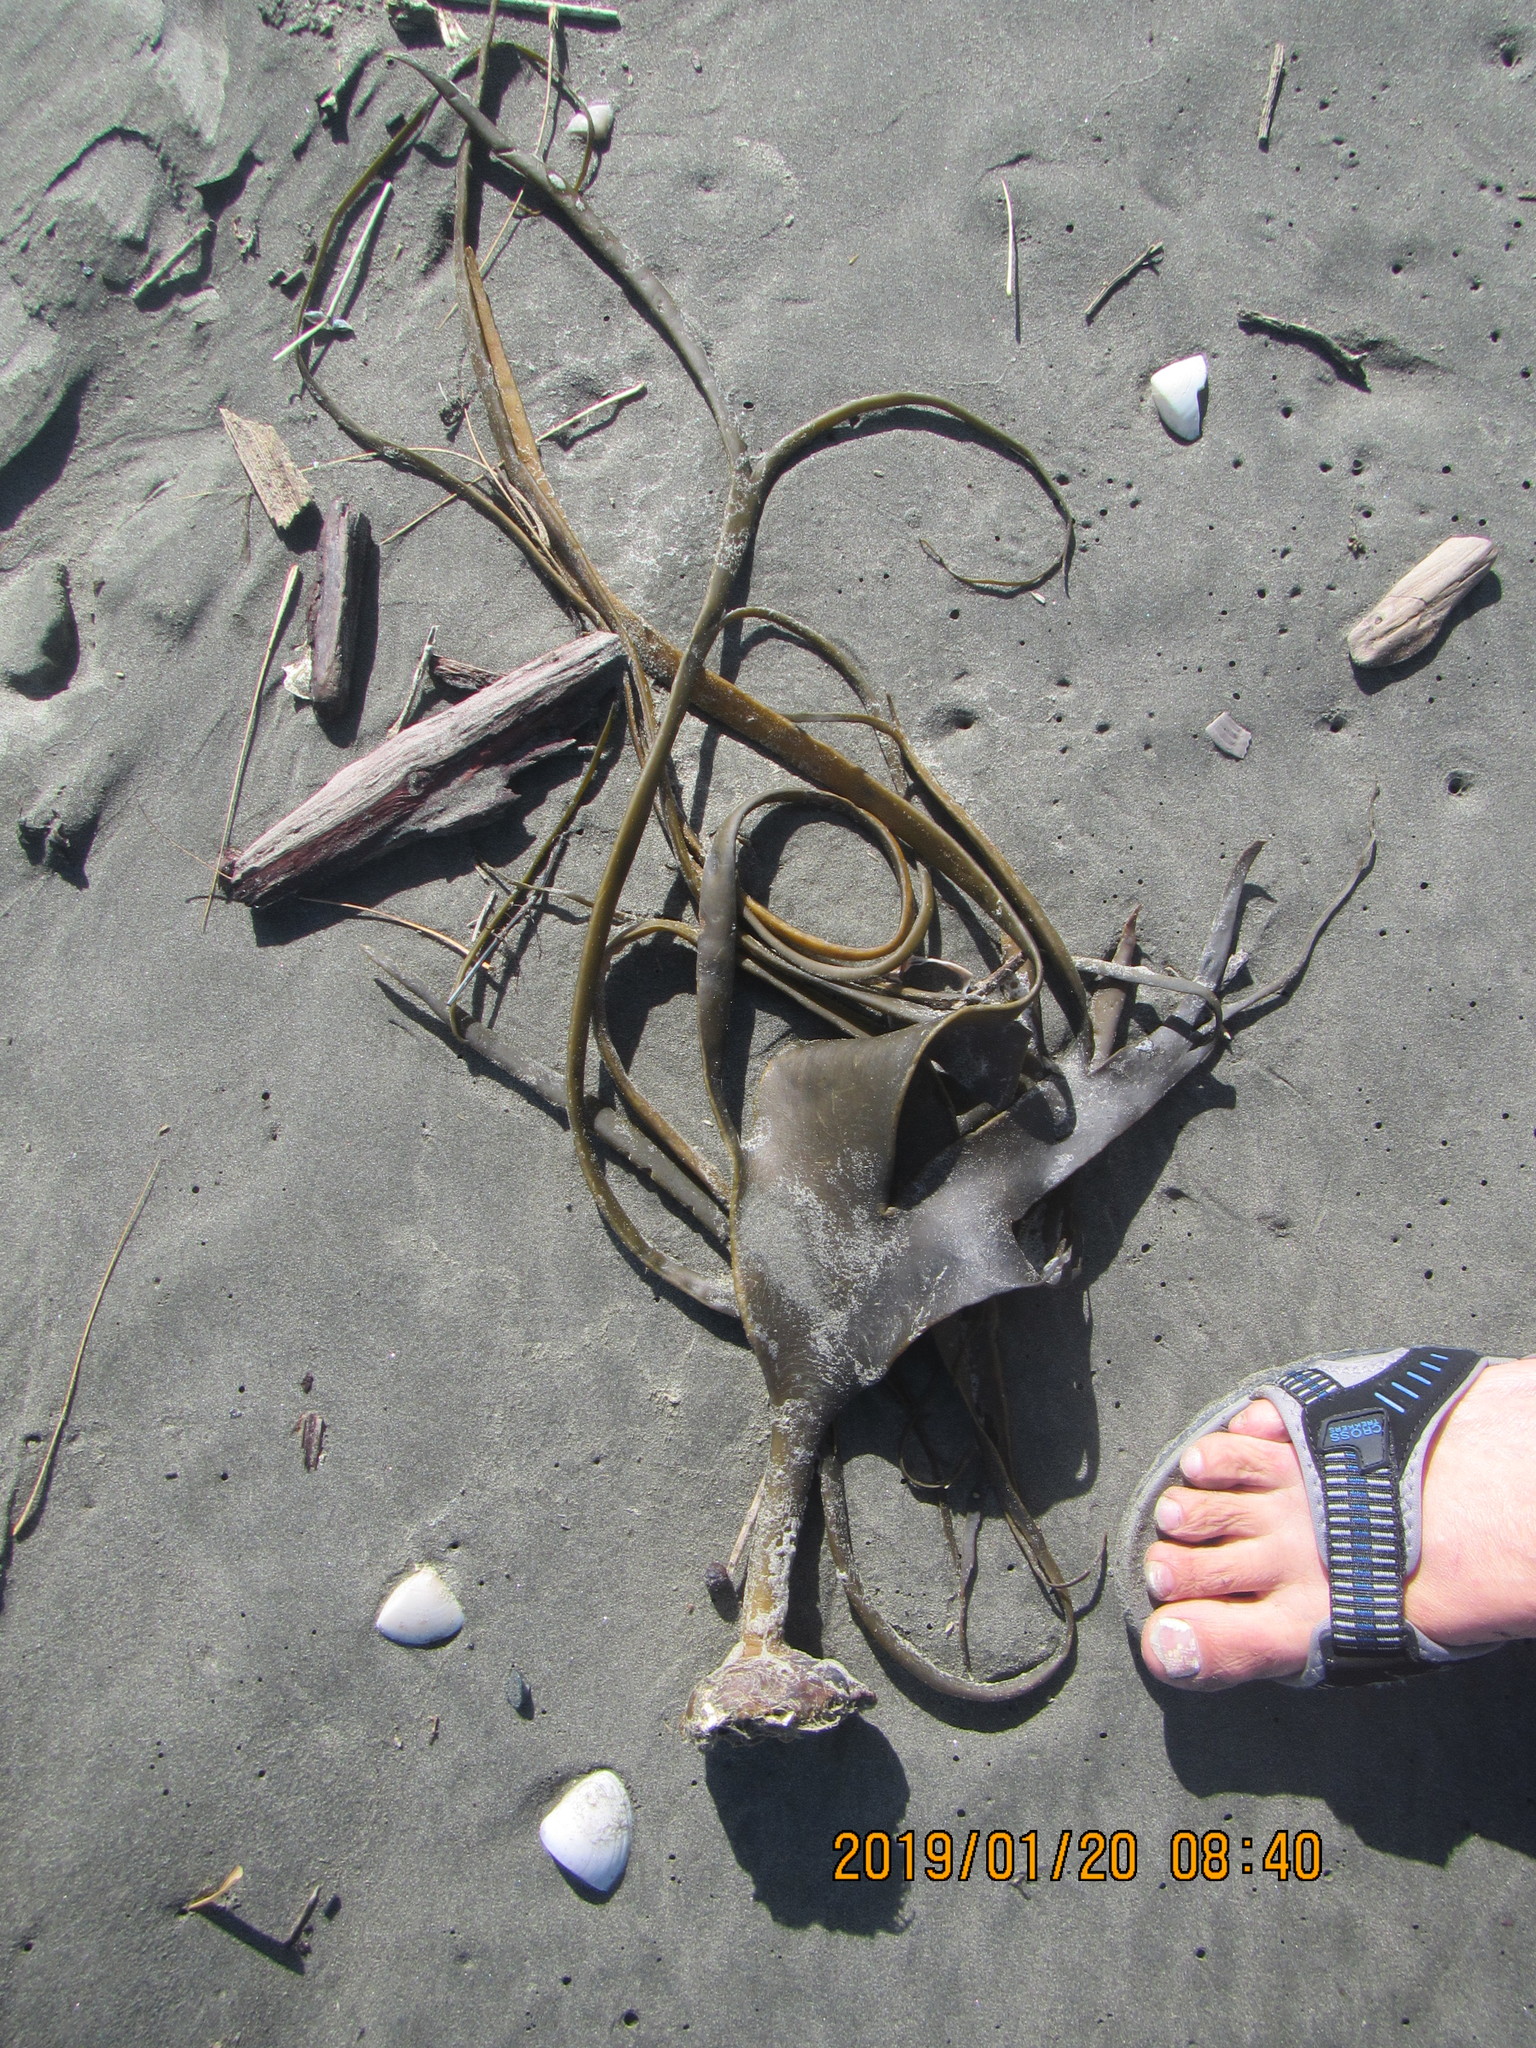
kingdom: Chromista
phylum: Ochrophyta
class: Phaeophyceae
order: Fucales
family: Durvillaeaceae
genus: Durvillaea
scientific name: Durvillaea antarctica
